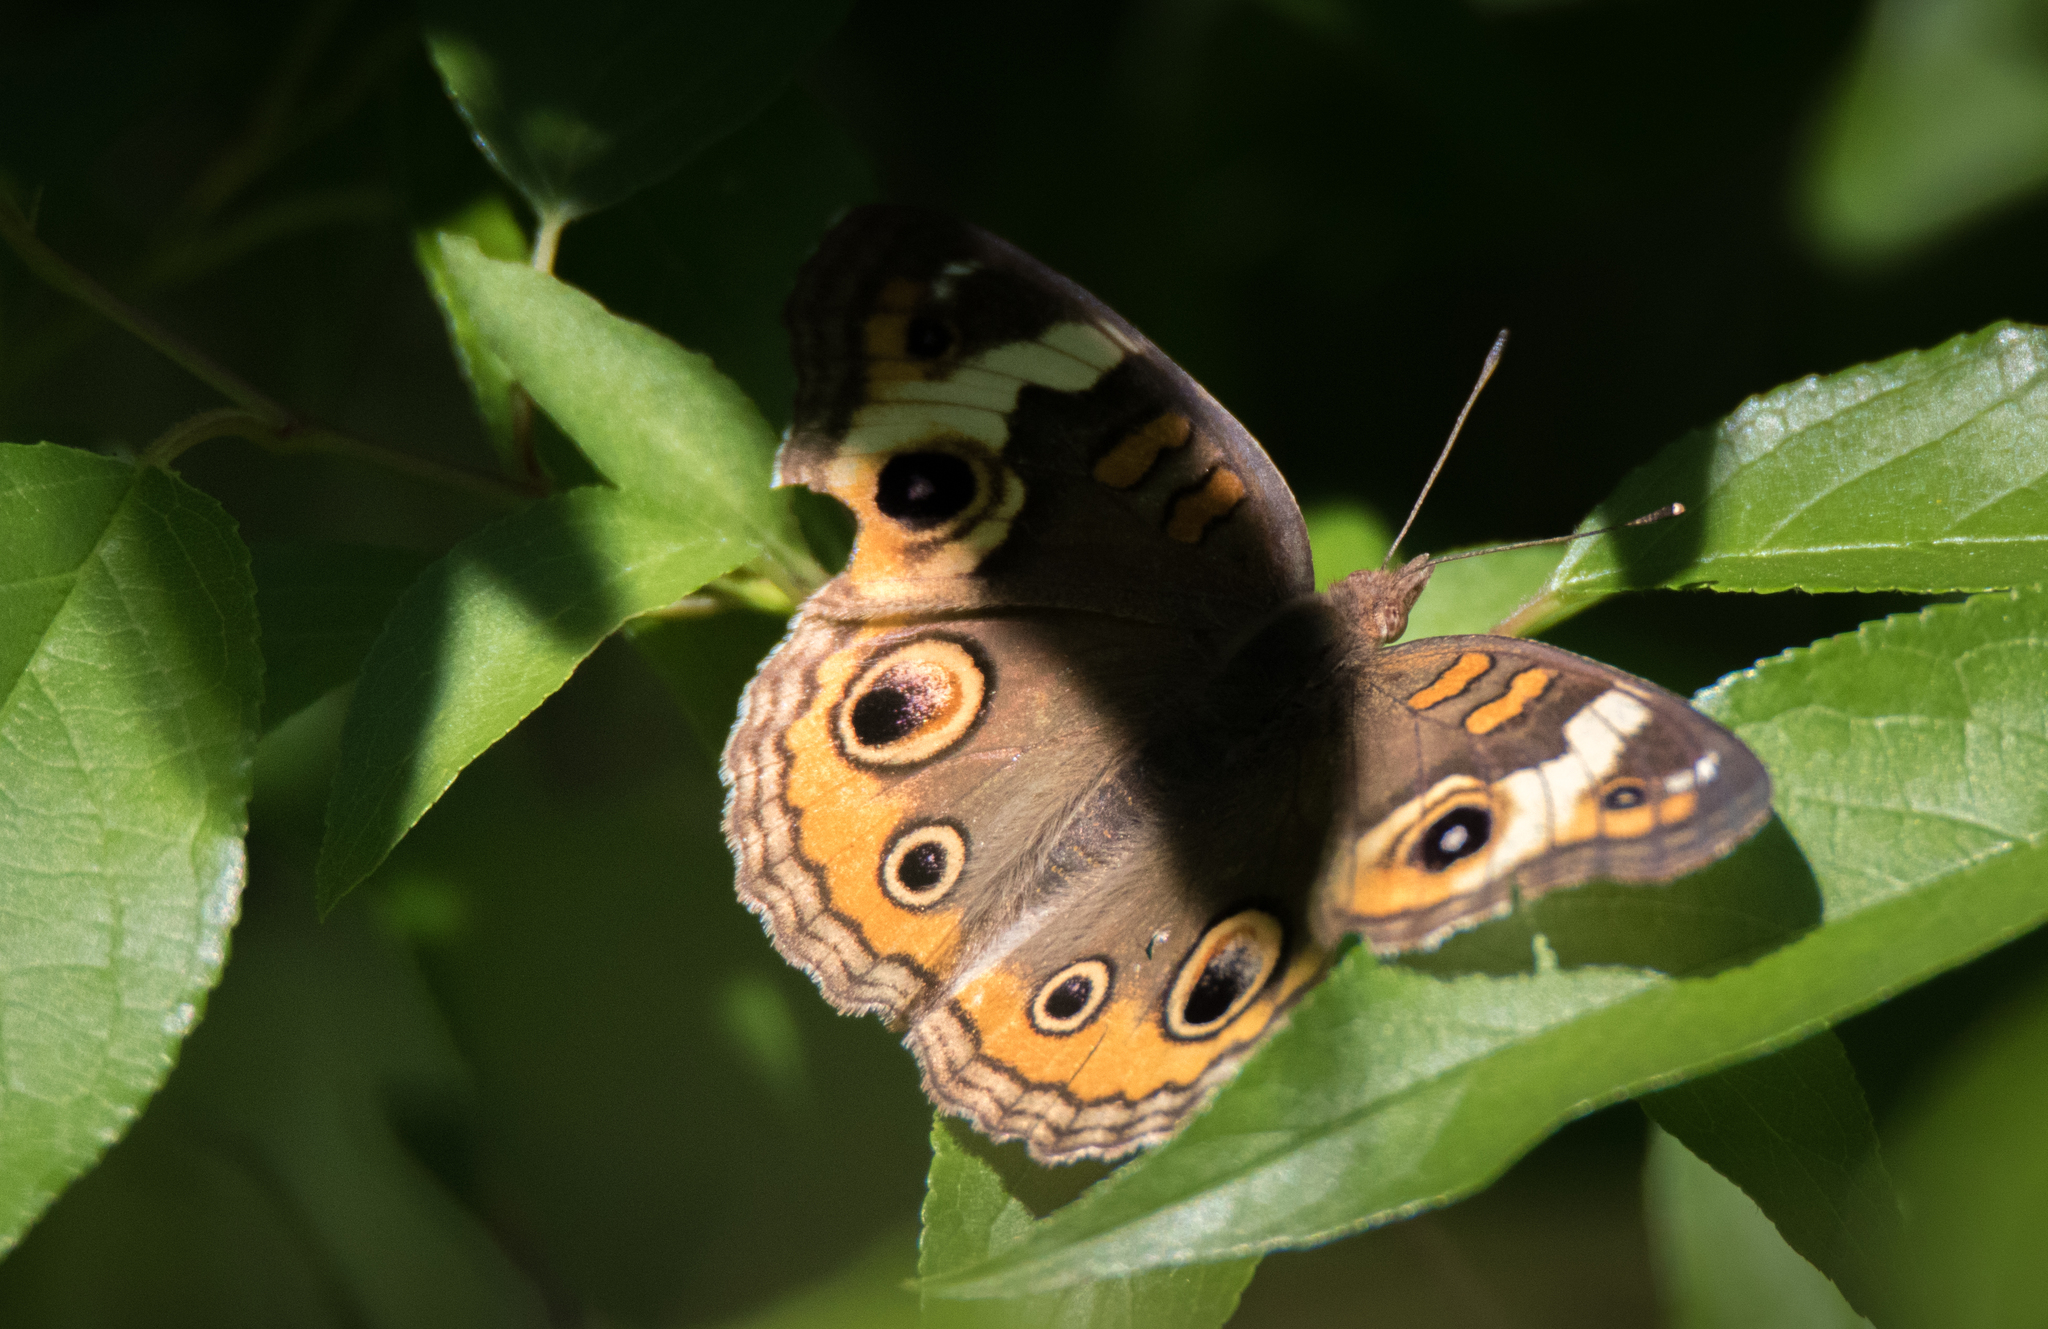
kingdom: Animalia
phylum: Arthropoda
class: Insecta
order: Lepidoptera
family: Nymphalidae
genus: Junonia
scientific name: Junonia coenia
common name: Common buckeye
